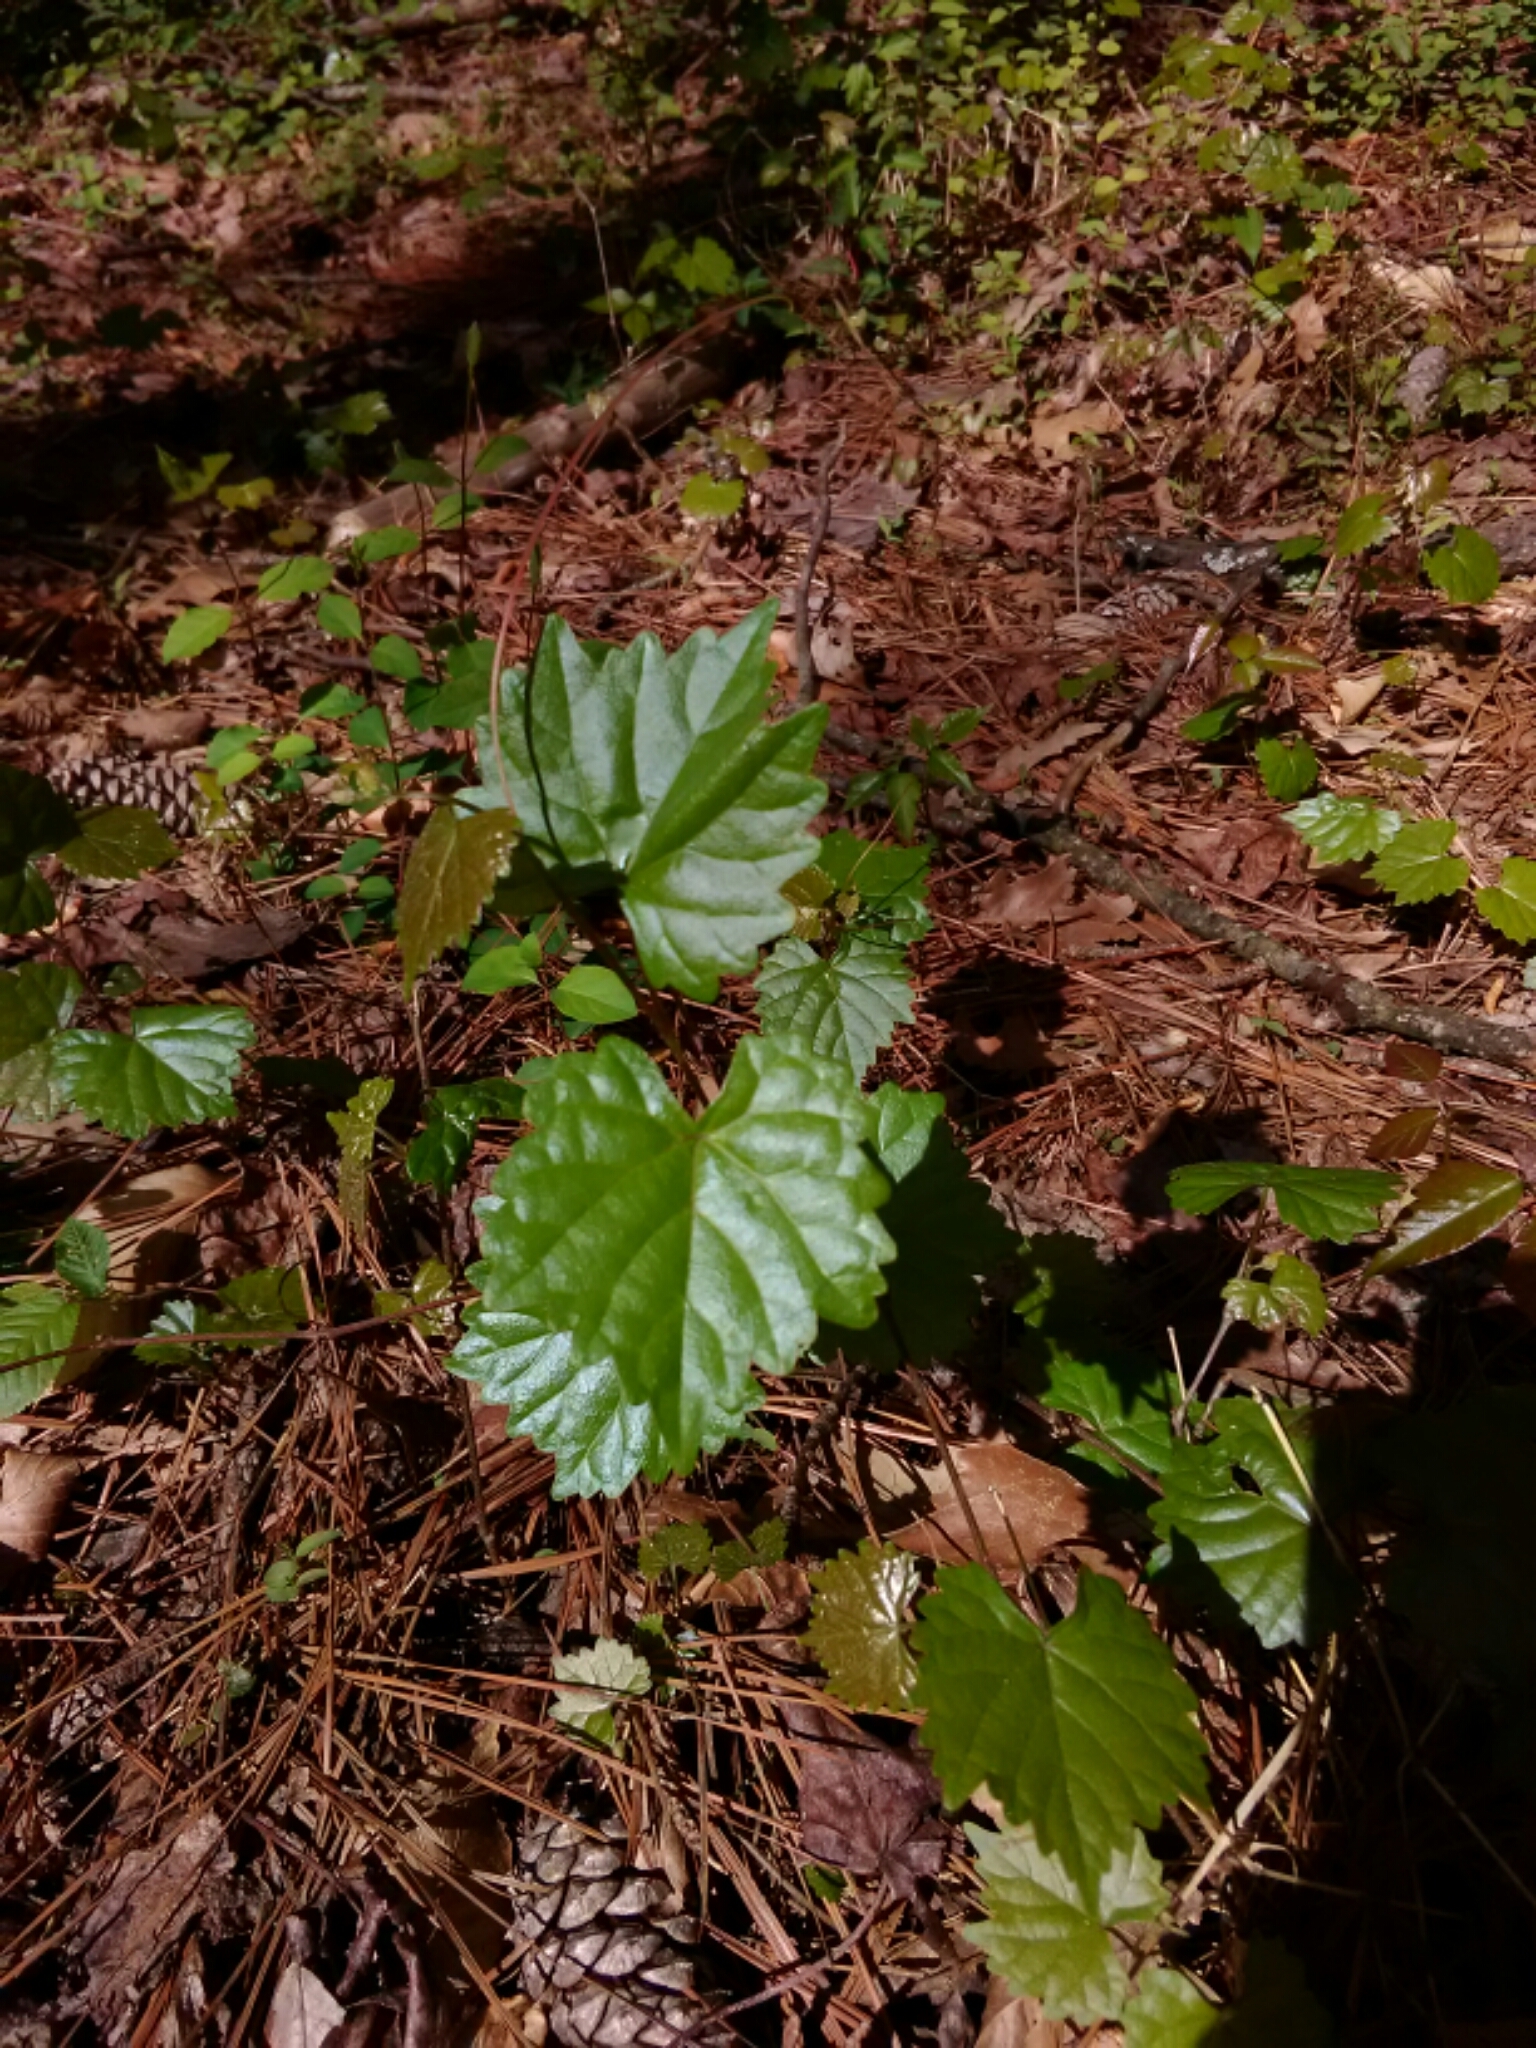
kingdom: Plantae
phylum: Tracheophyta
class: Magnoliopsida
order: Vitales
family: Vitaceae
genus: Vitis
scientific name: Vitis rotundifolia
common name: Muscadine grape
